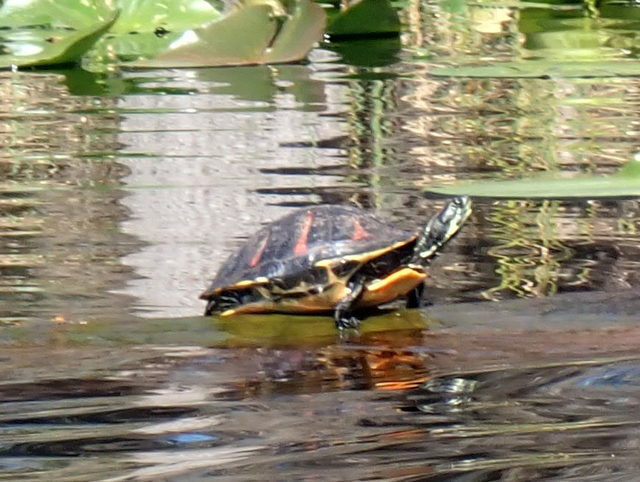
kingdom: Animalia
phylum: Chordata
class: Testudines
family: Emydidae
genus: Pseudemys
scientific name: Pseudemys nelsoni
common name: Florida red-bellied turtle
